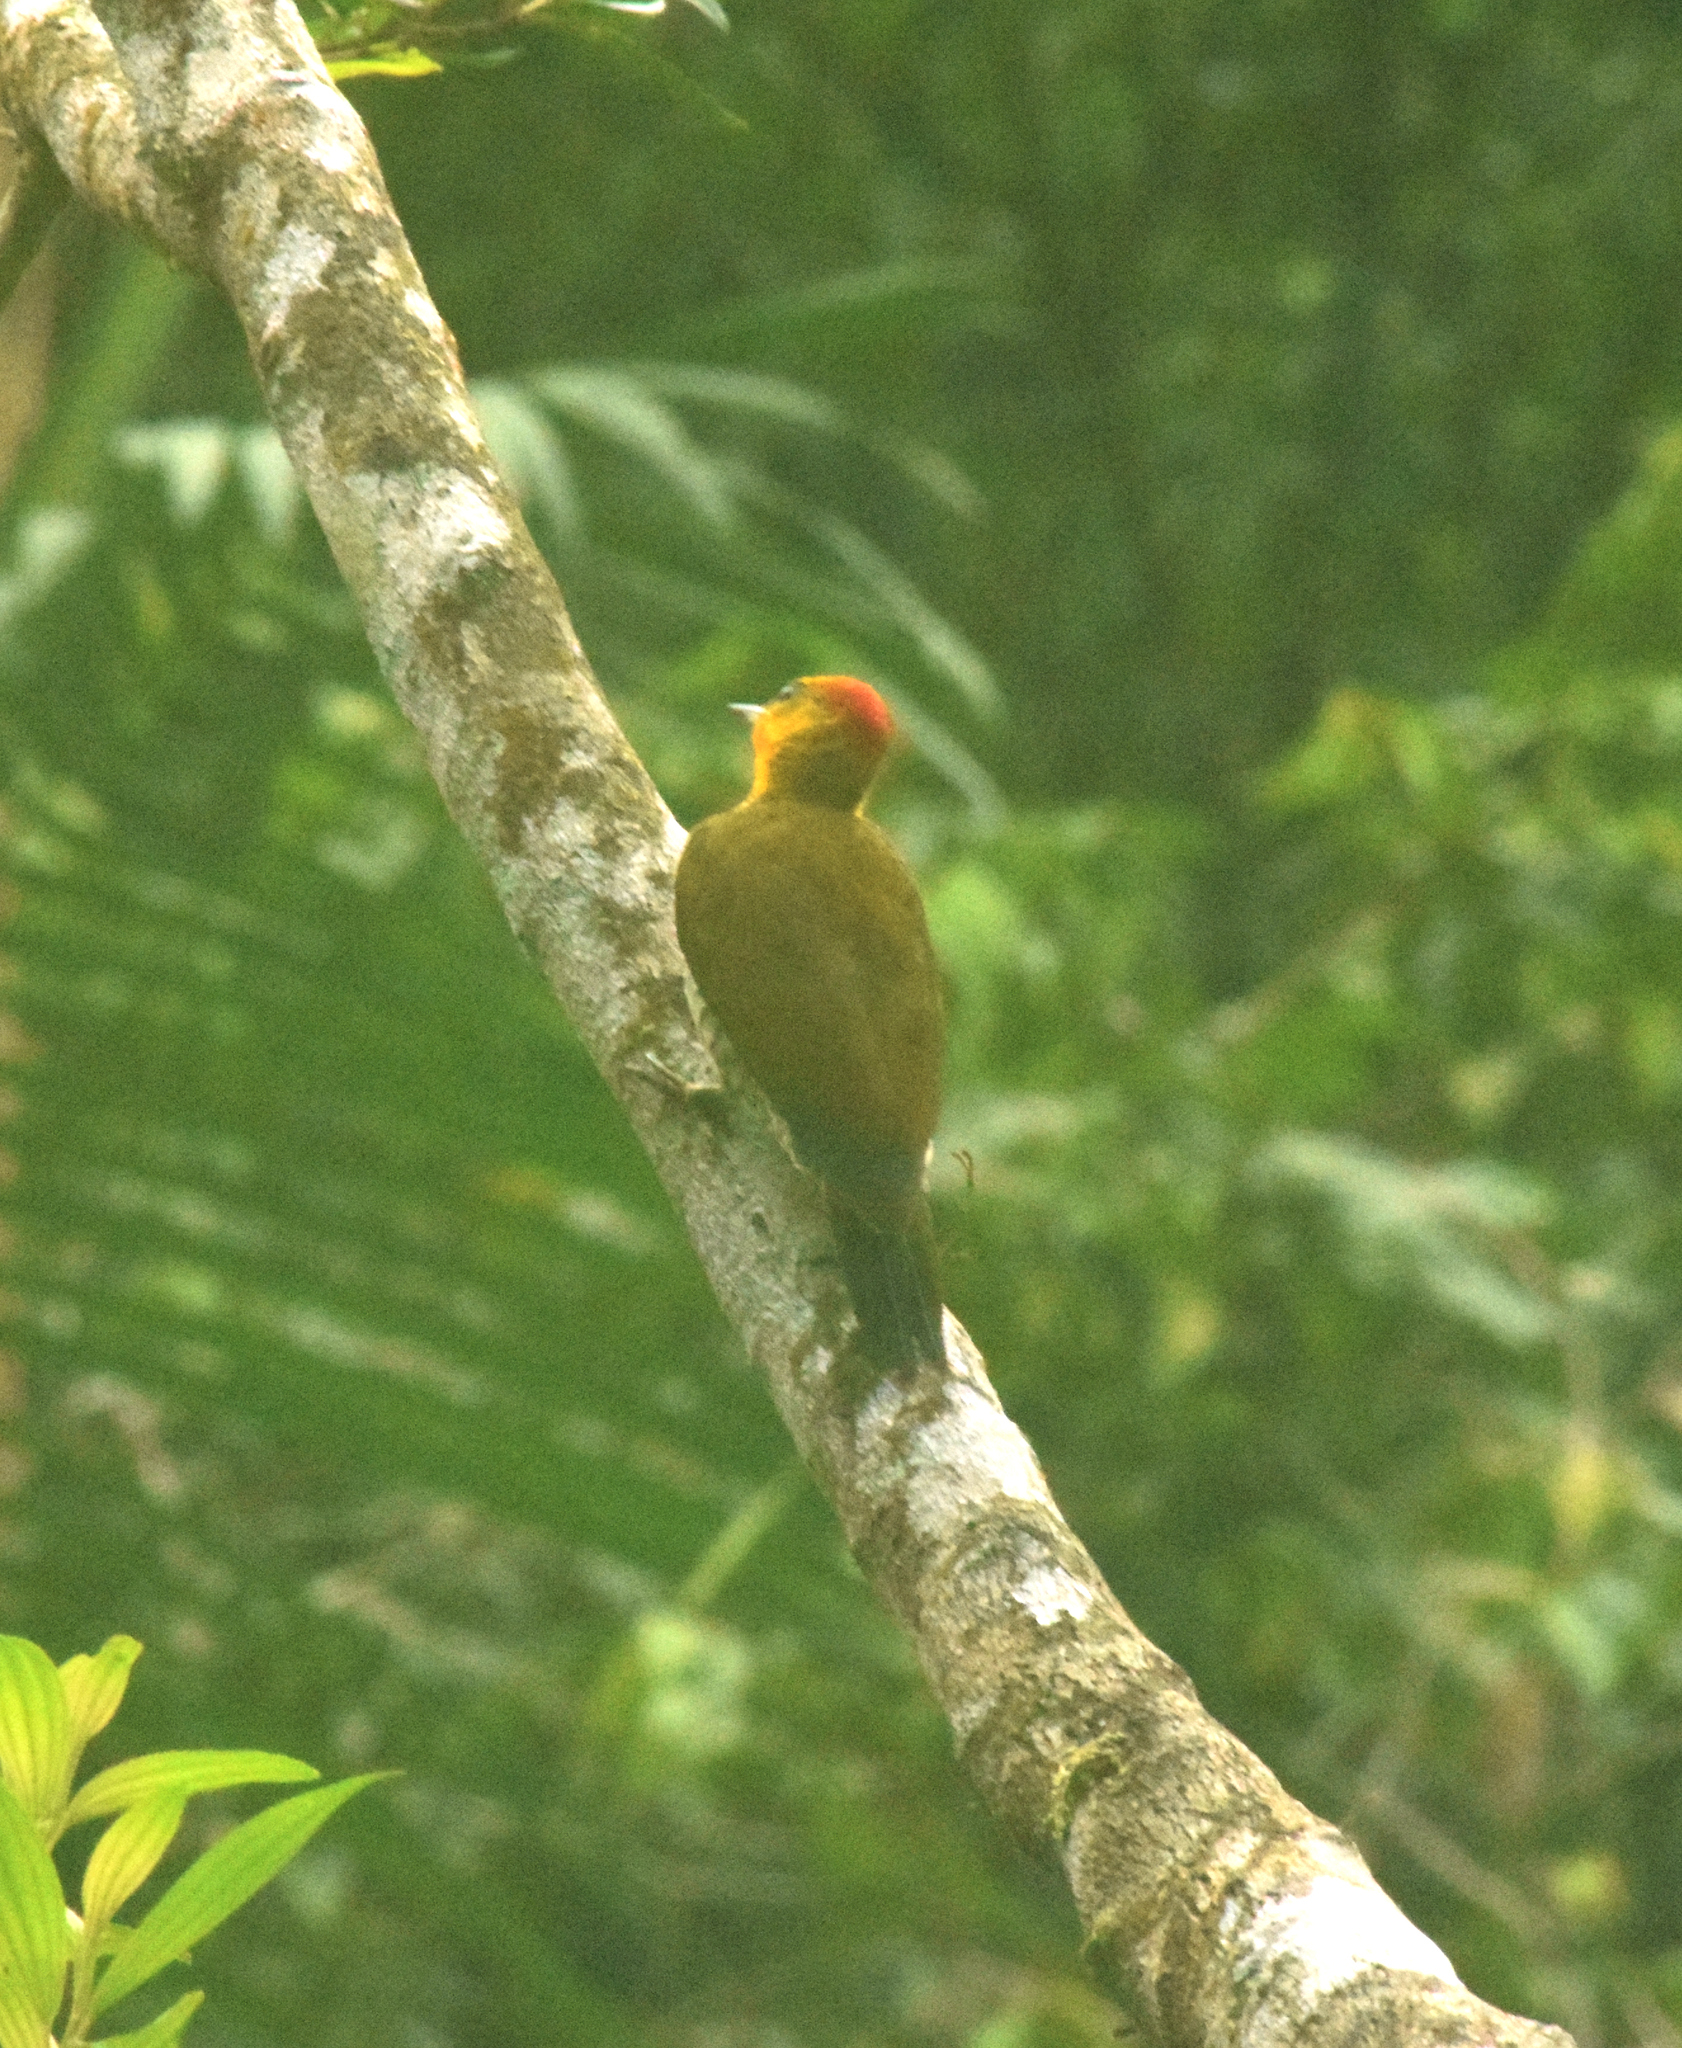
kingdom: Animalia
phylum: Chordata
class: Aves
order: Piciformes
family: Picidae
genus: Piculus
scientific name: Piculus flavigula
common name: Yellow-throated woodpecker
